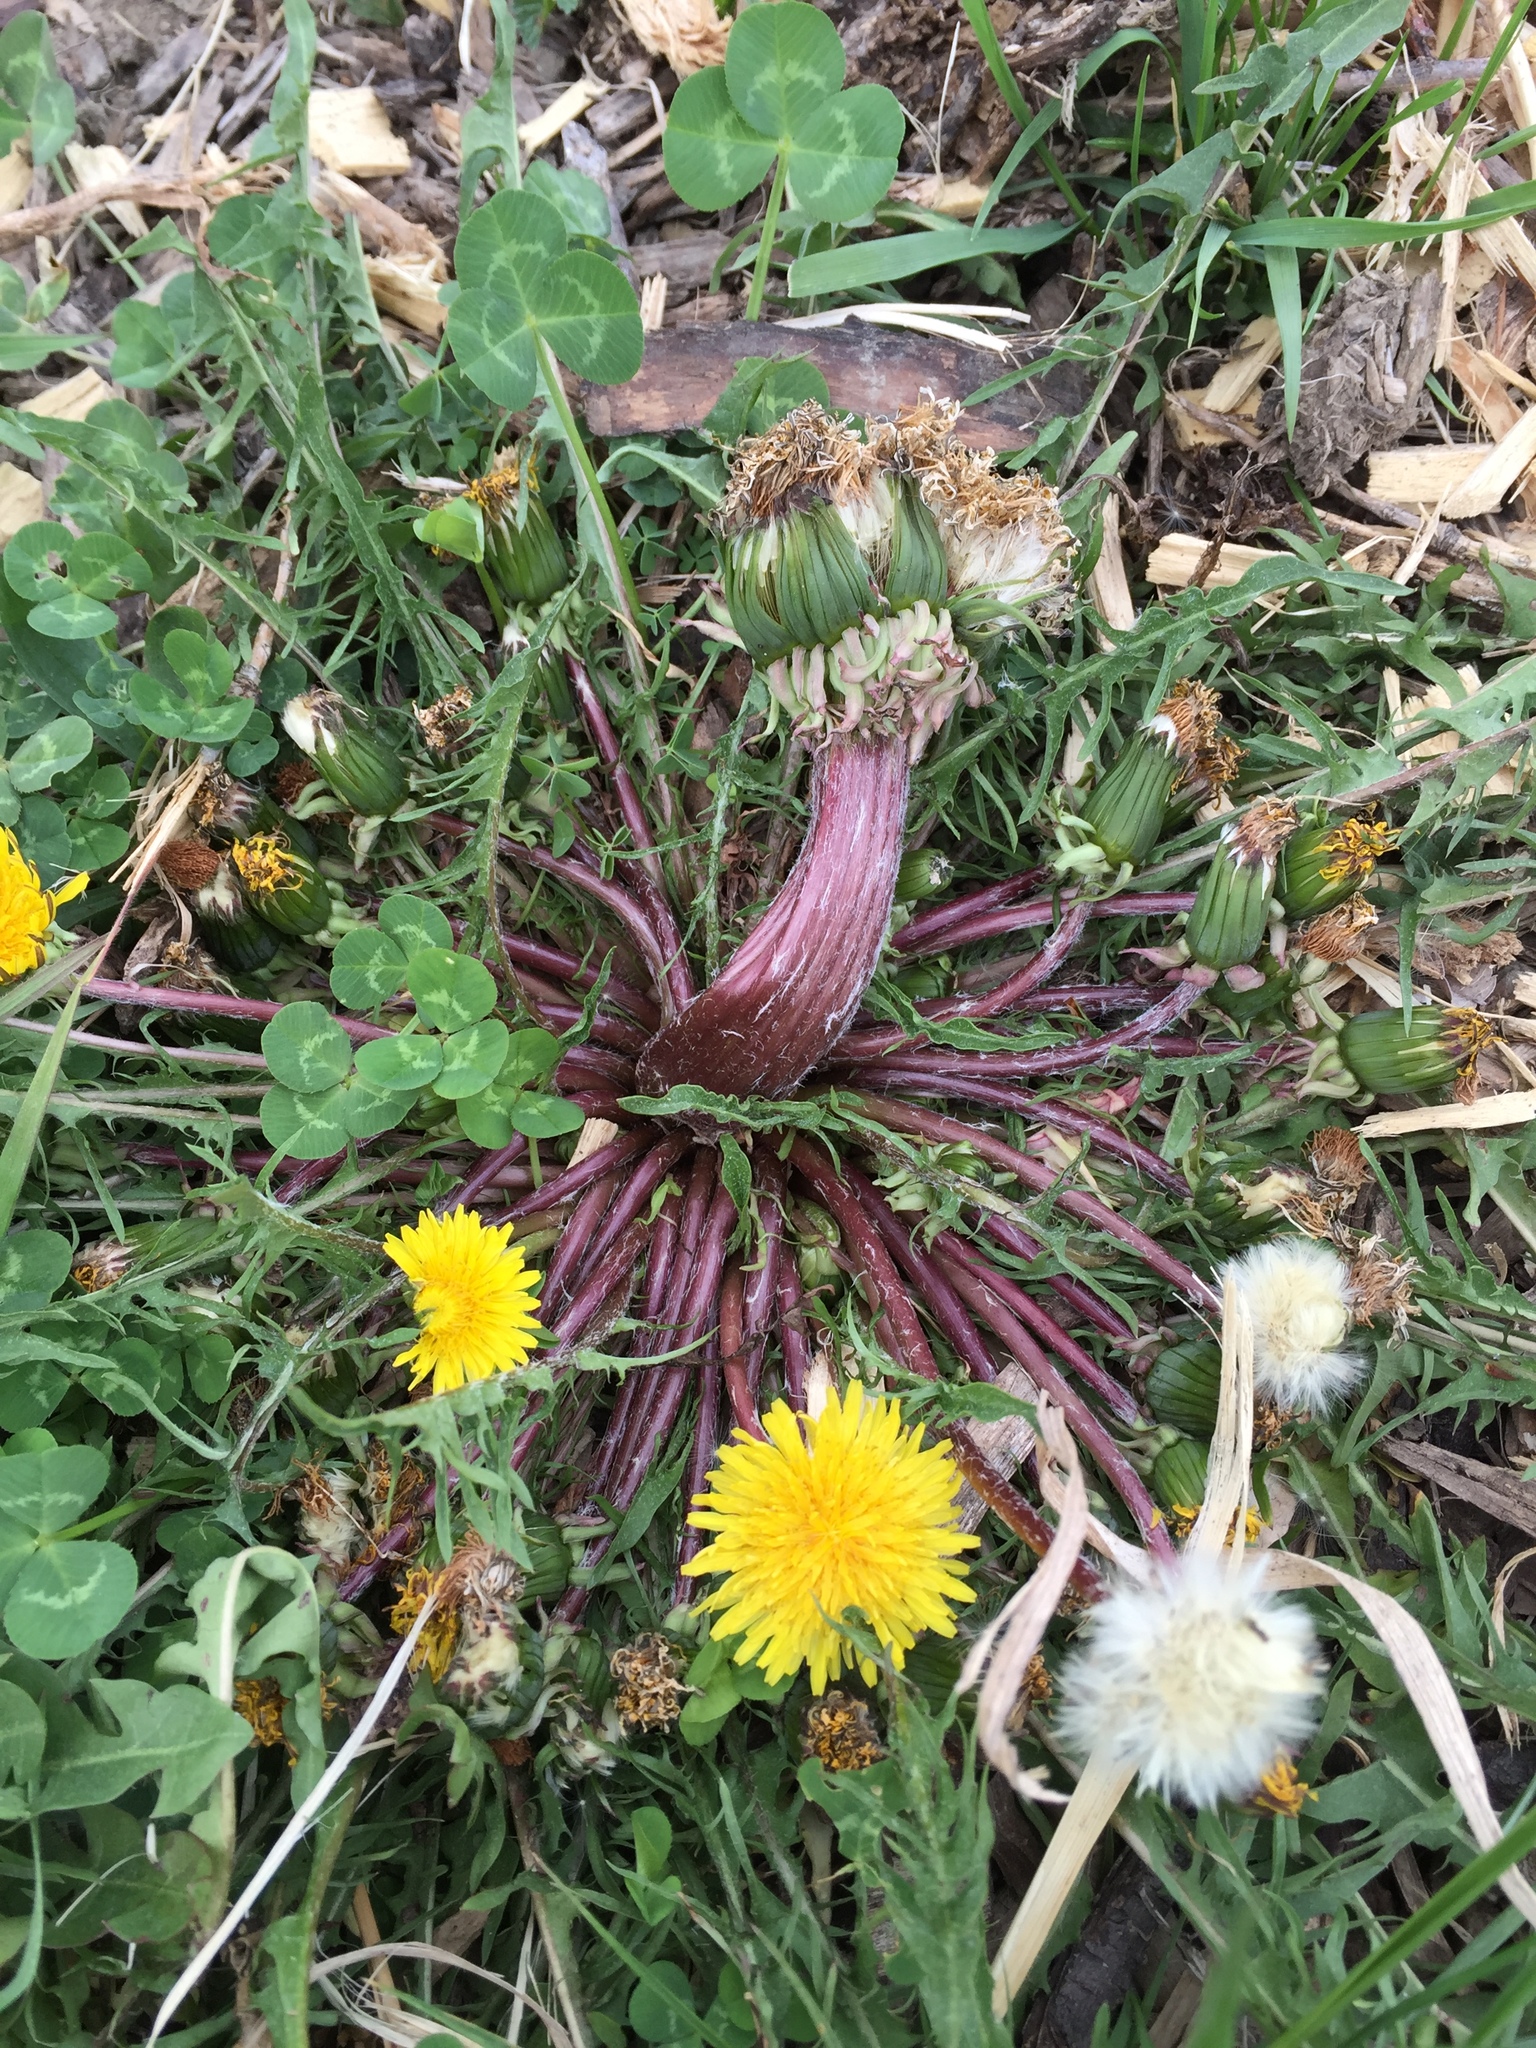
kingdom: Plantae
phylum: Tracheophyta
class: Magnoliopsida
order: Asterales
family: Asteraceae
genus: Taraxacum
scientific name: Taraxacum
